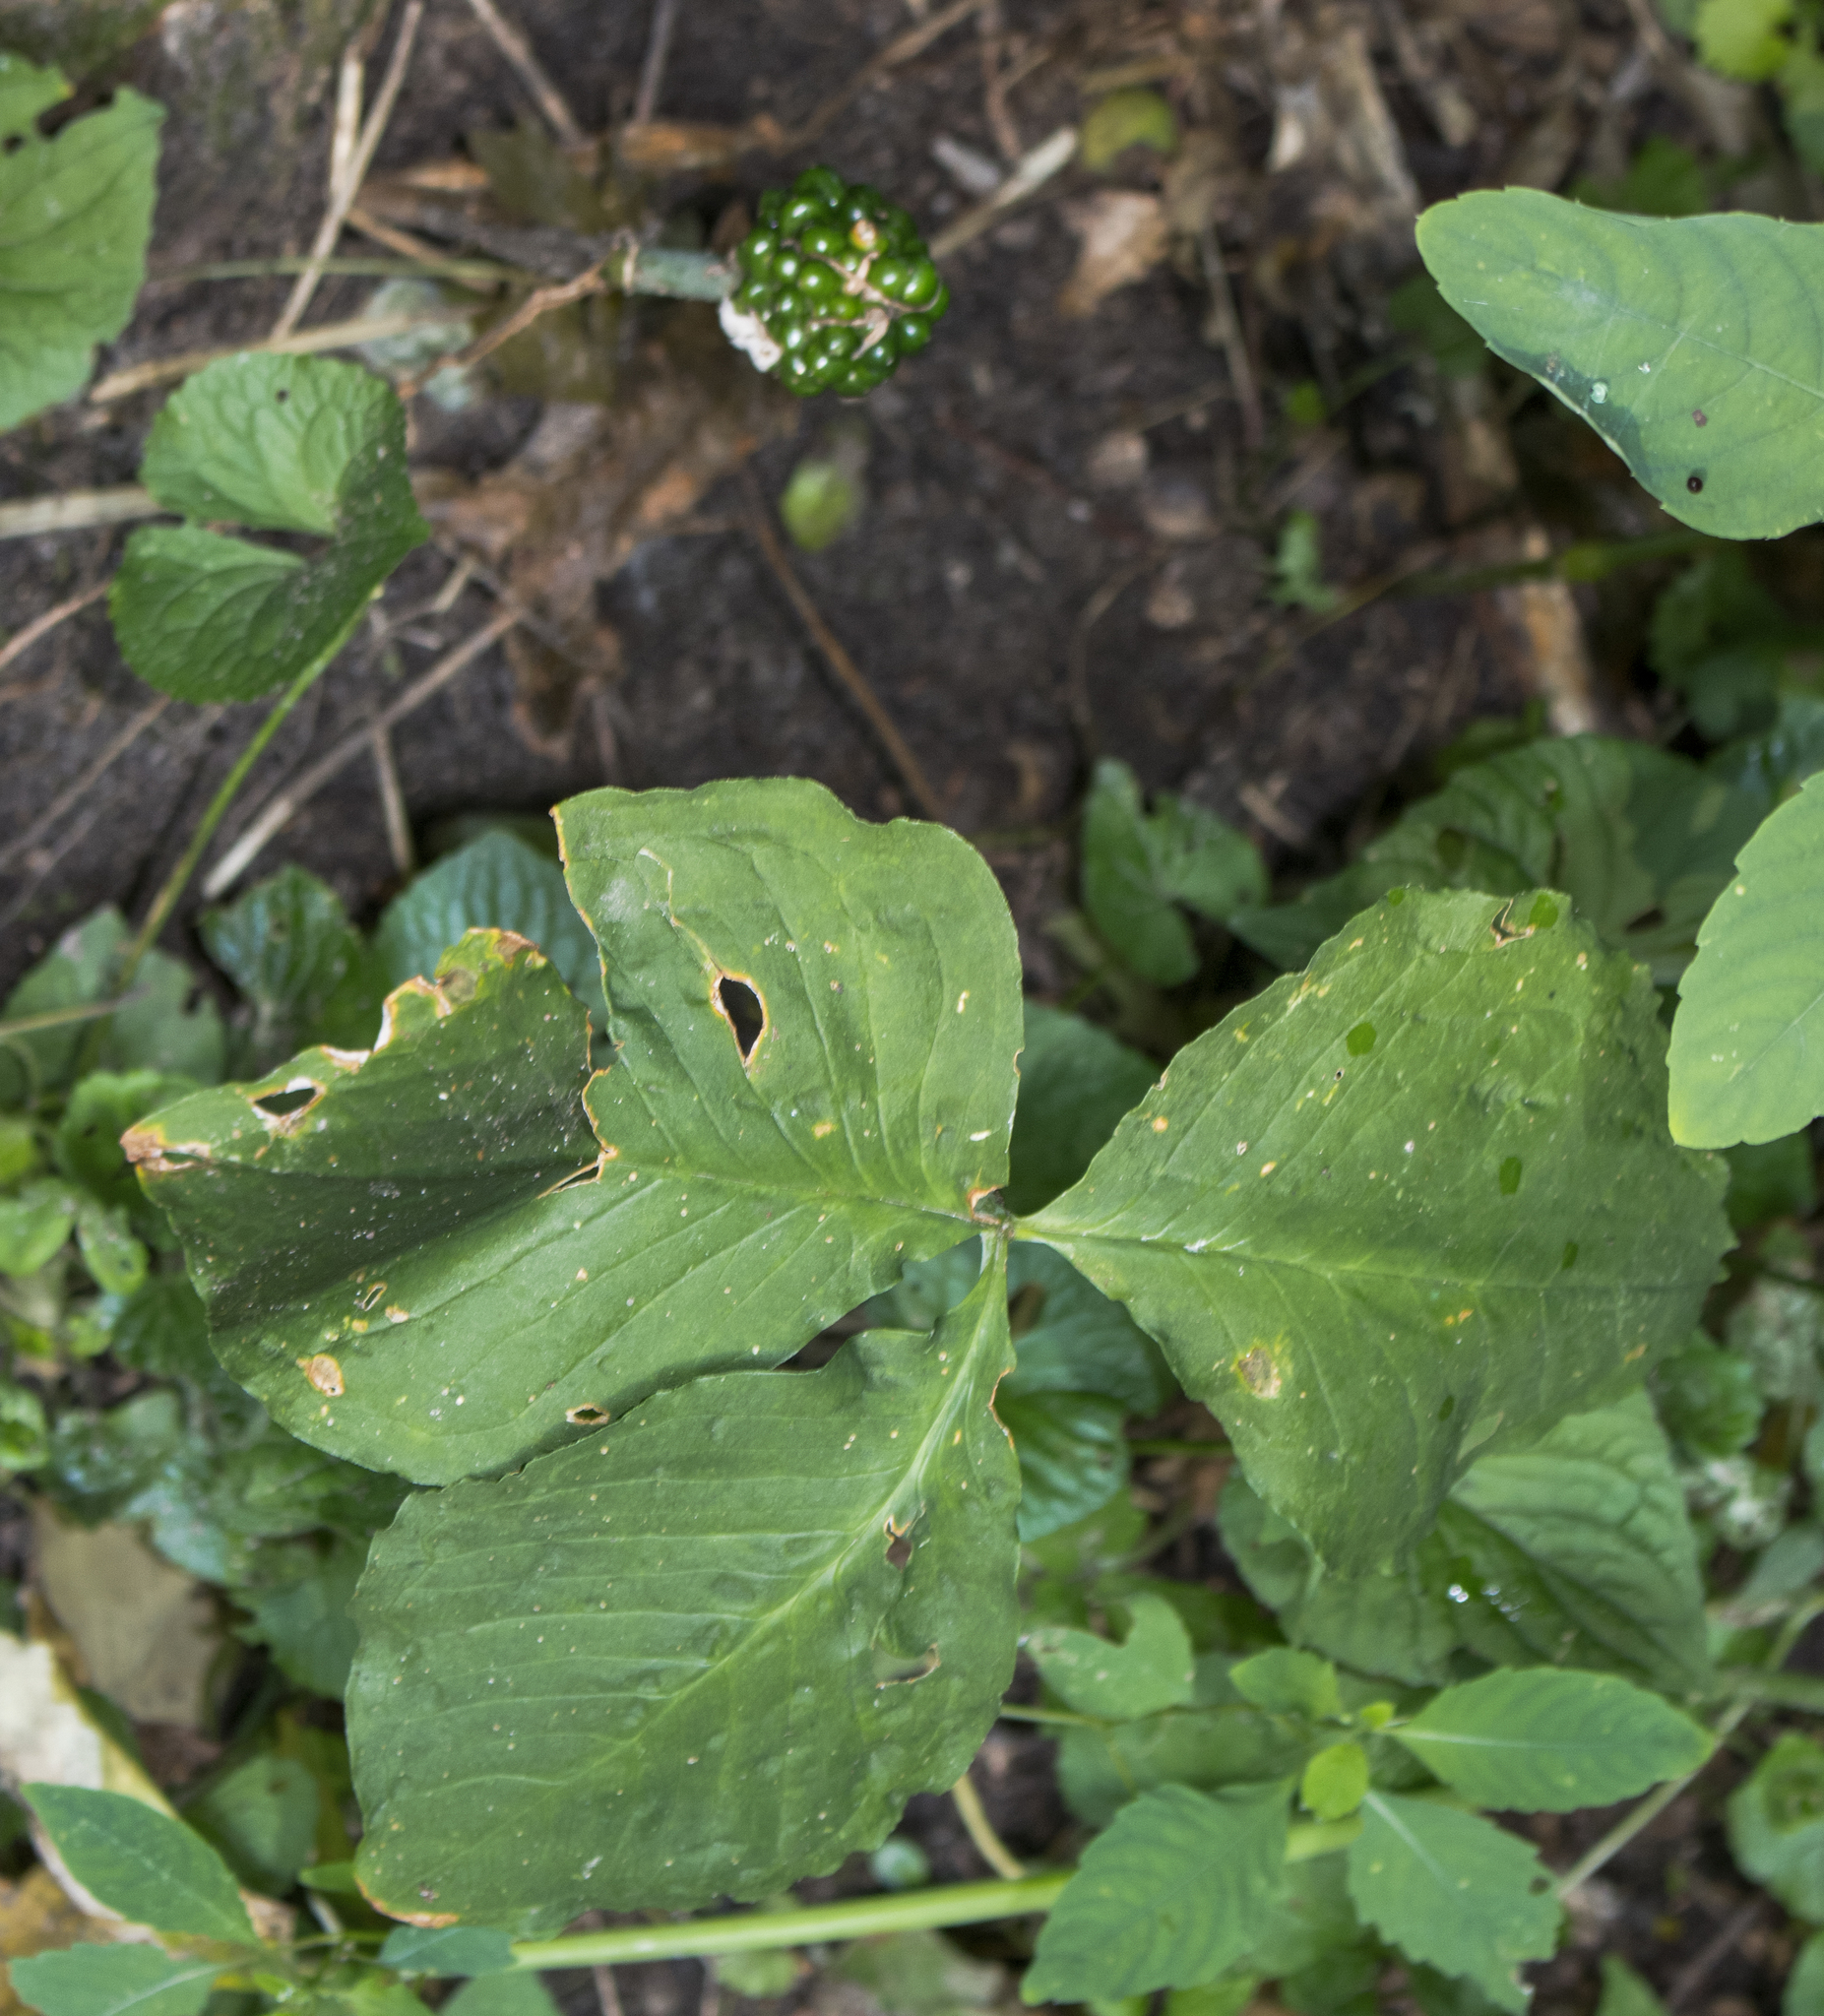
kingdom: Plantae
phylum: Tracheophyta
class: Liliopsida
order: Alismatales
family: Araceae
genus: Arisaema
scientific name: Arisaema triphyllum
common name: Jack-in-the-pulpit
